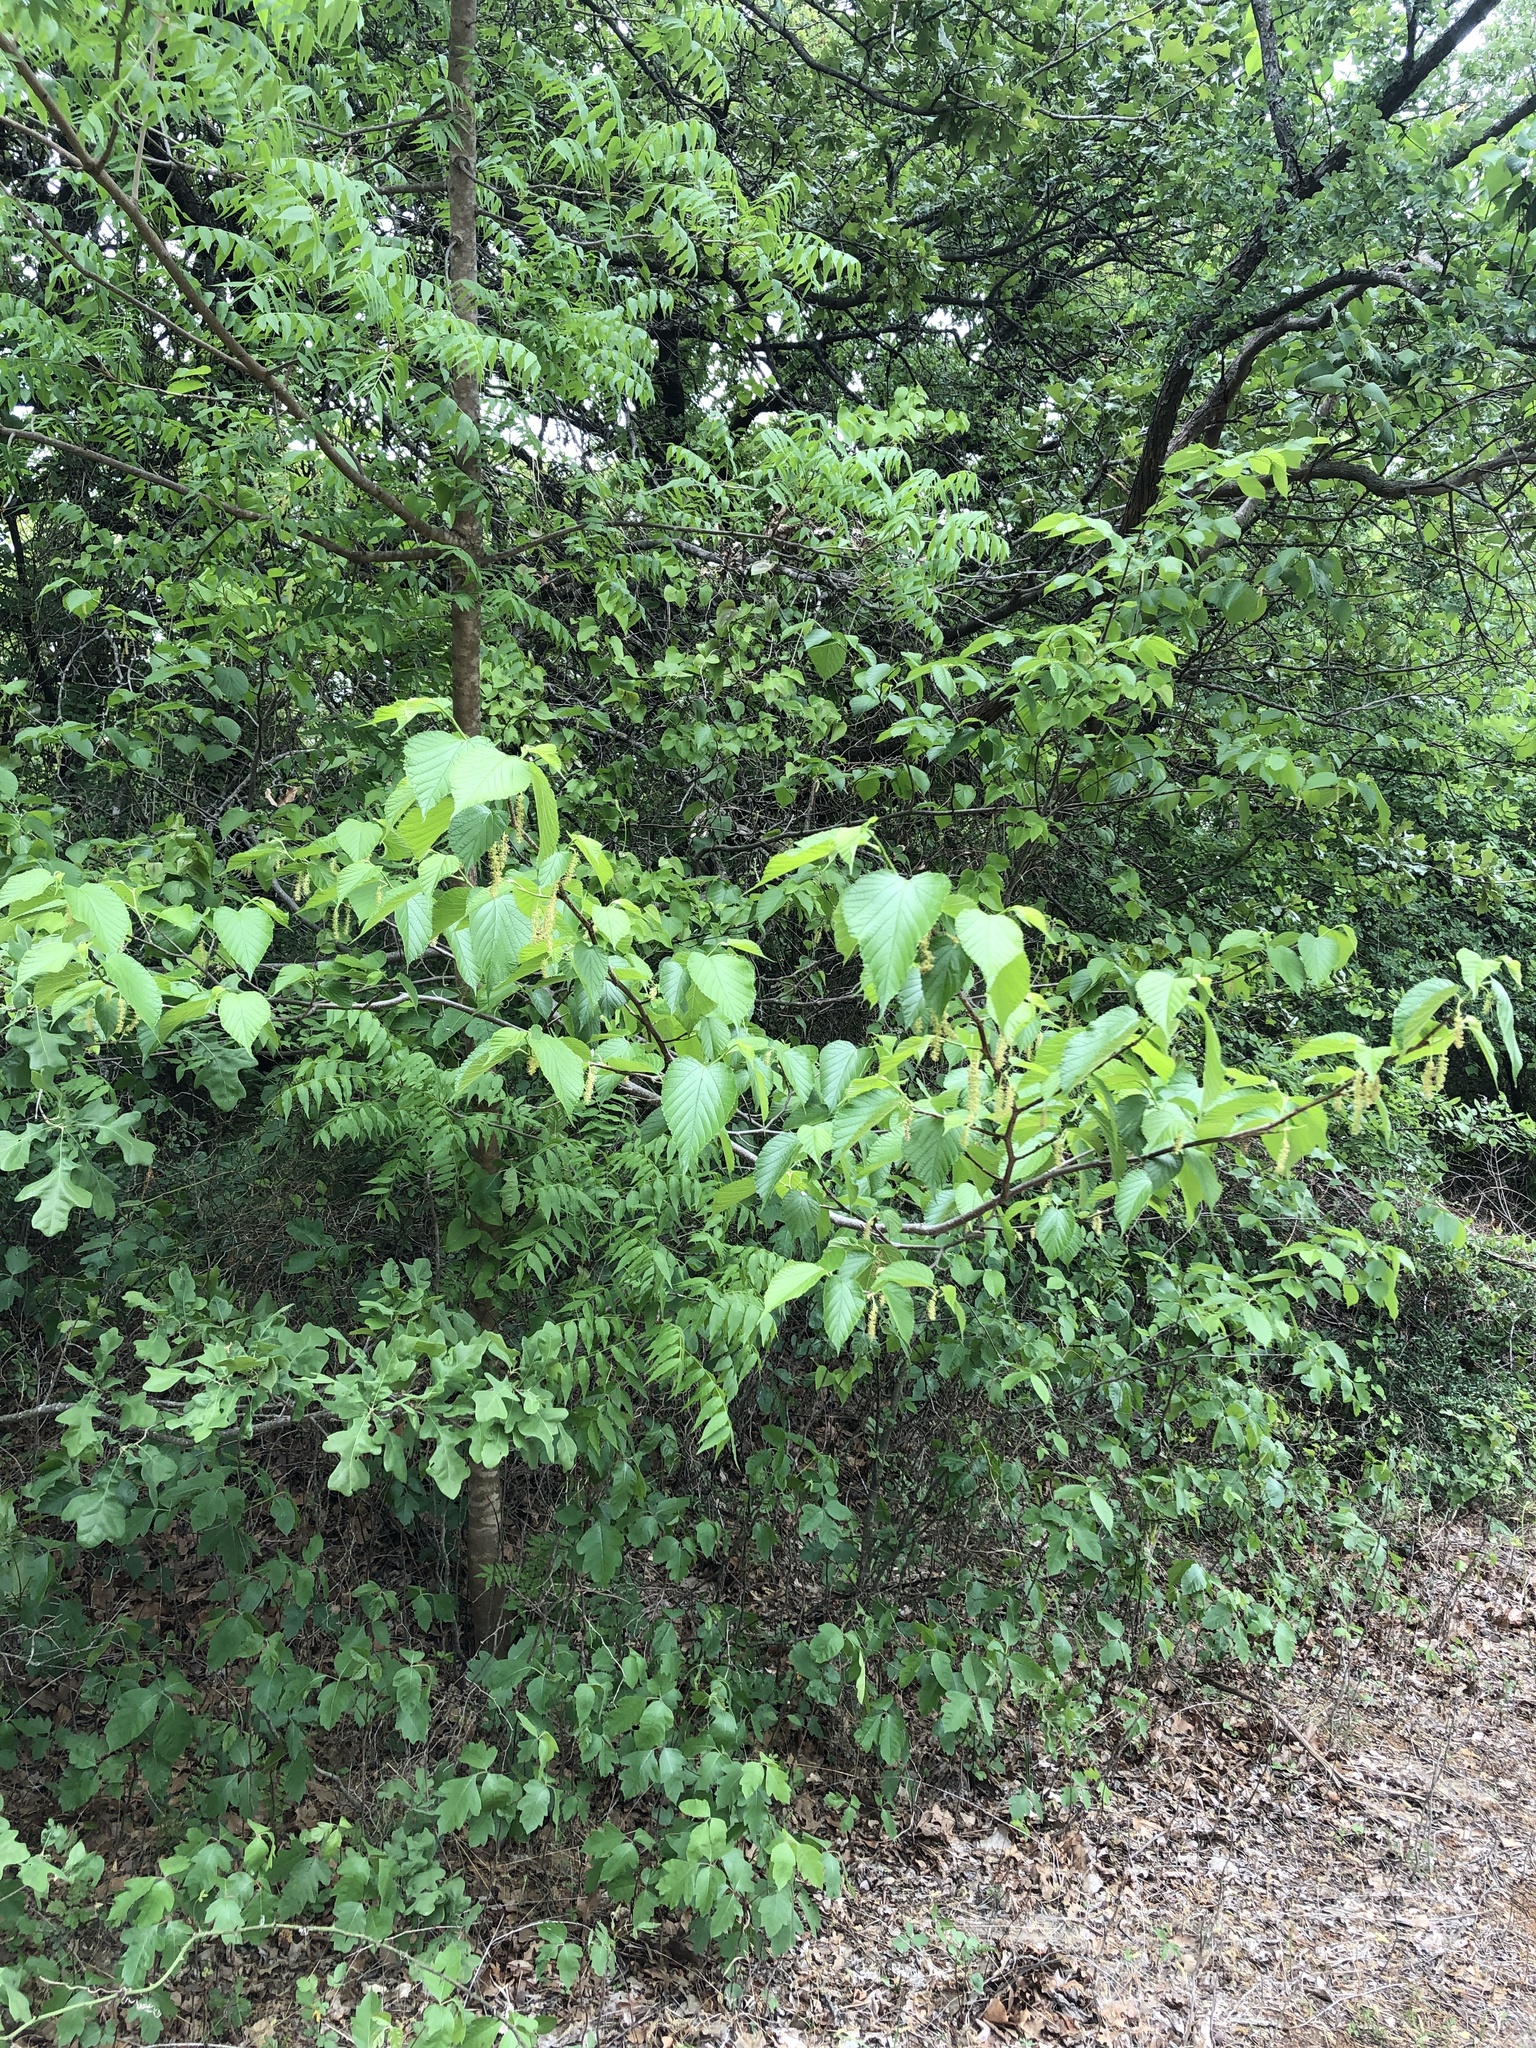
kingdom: Plantae
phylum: Tracheophyta
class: Magnoliopsida
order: Rosales
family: Moraceae
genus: Morus
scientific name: Morus rubra
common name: Red mulberry
